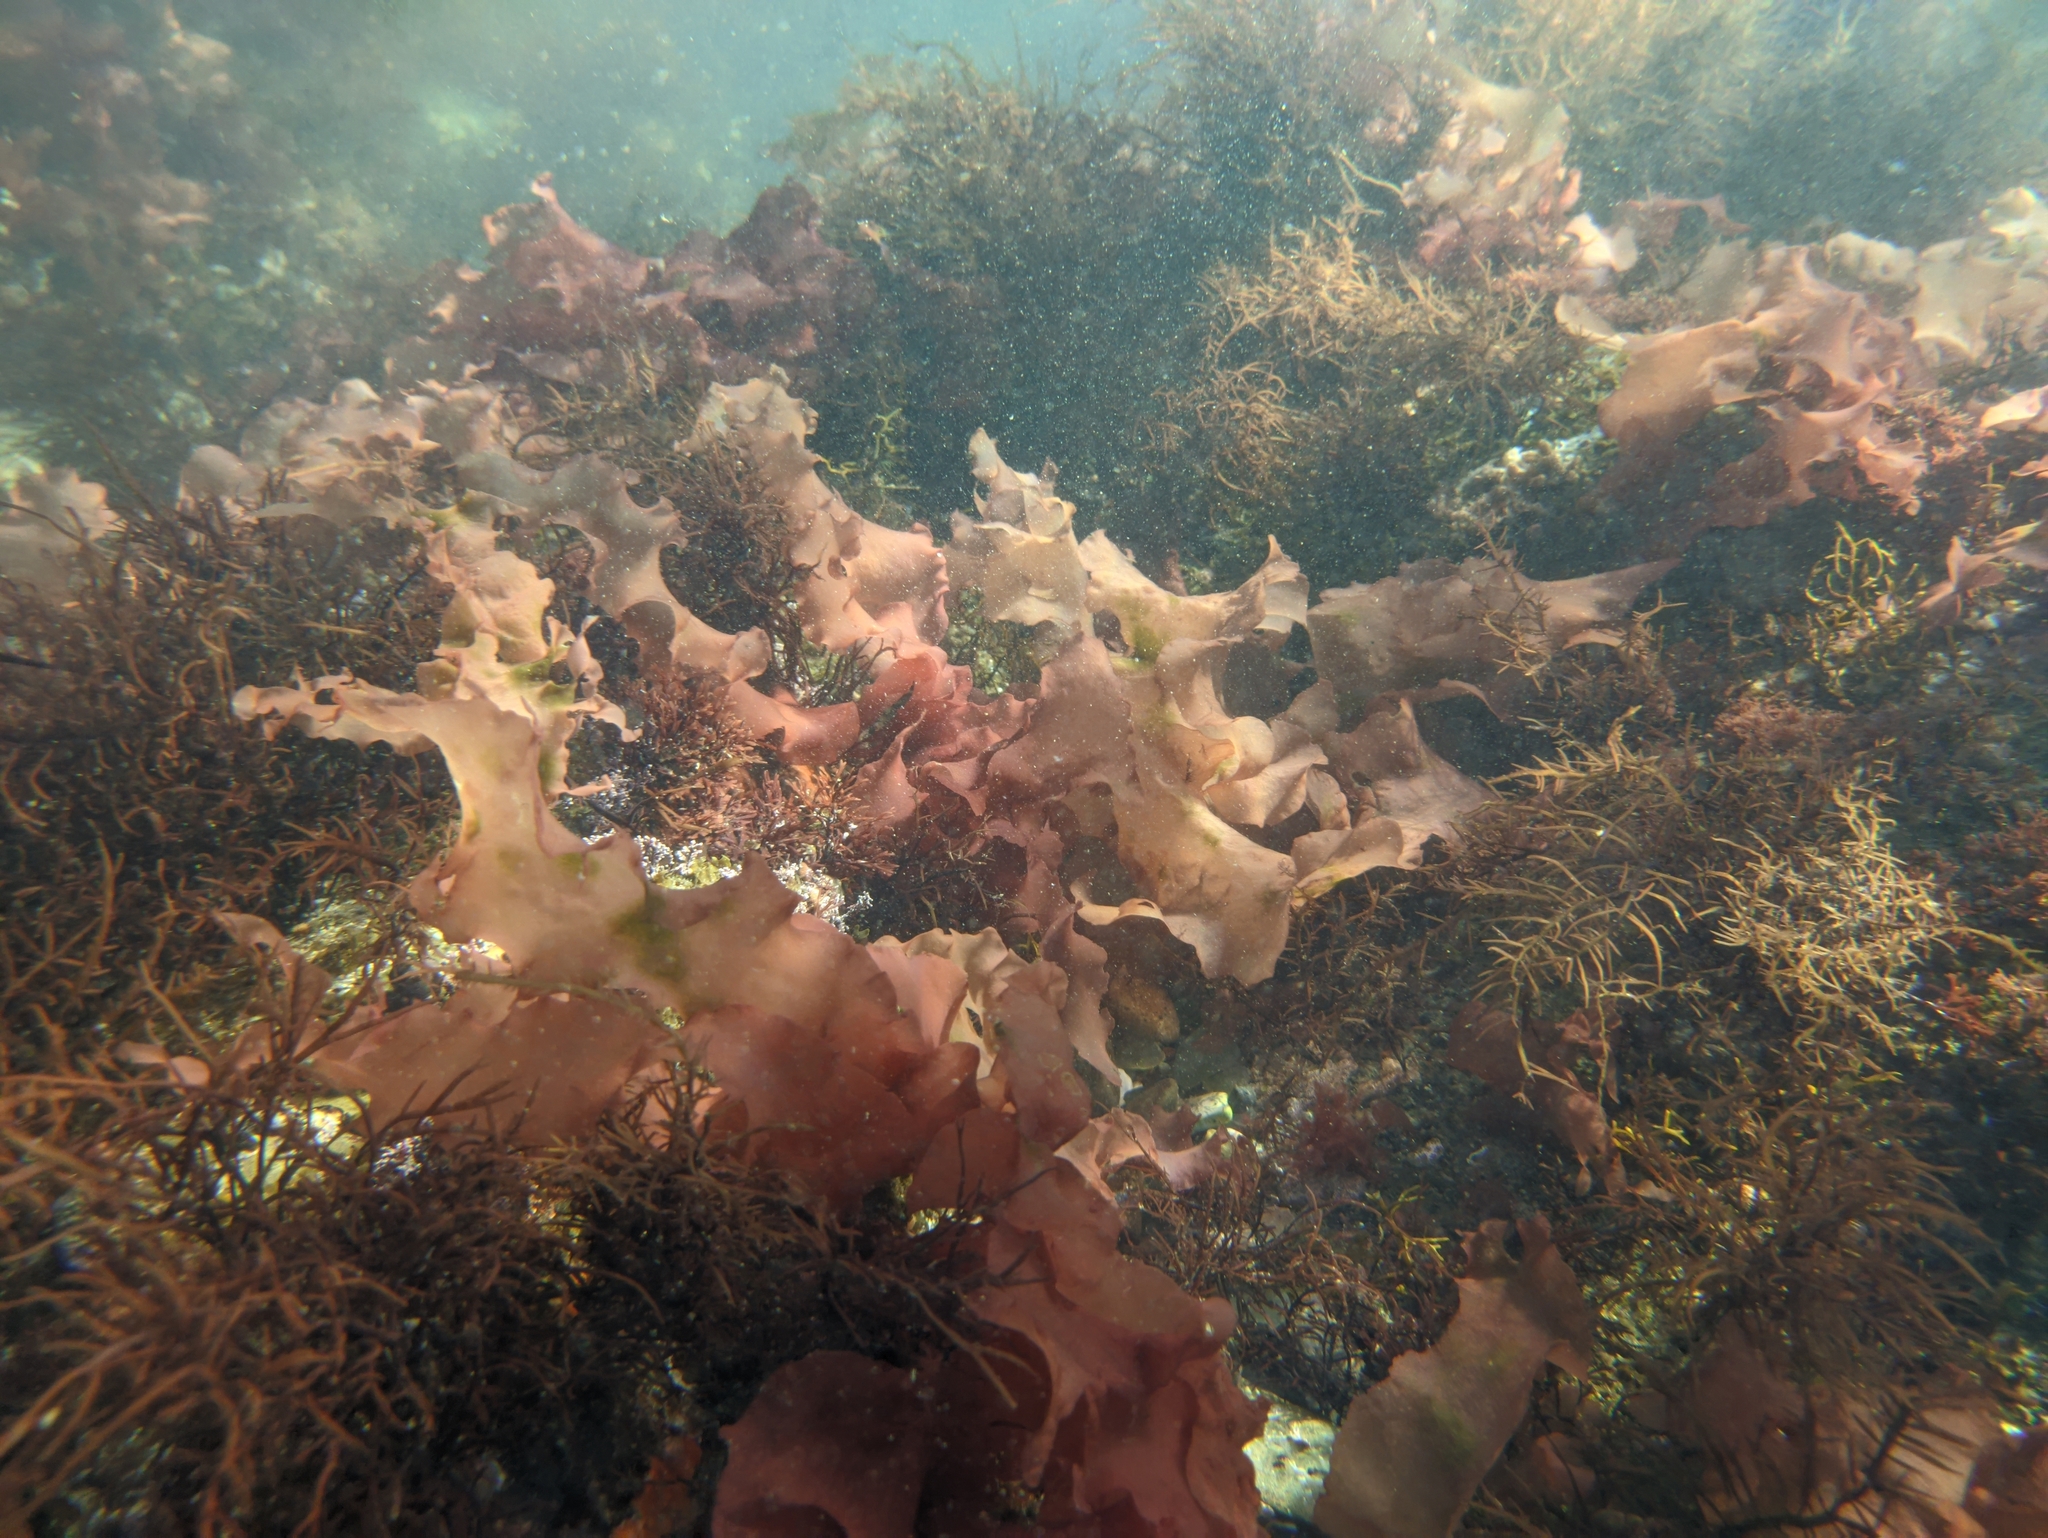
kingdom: Plantae
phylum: Rhodophyta
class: Florideophyceae
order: Halymeniales
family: Halymeniaceae
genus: Grateloupia
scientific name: Grateloupia turuturu
